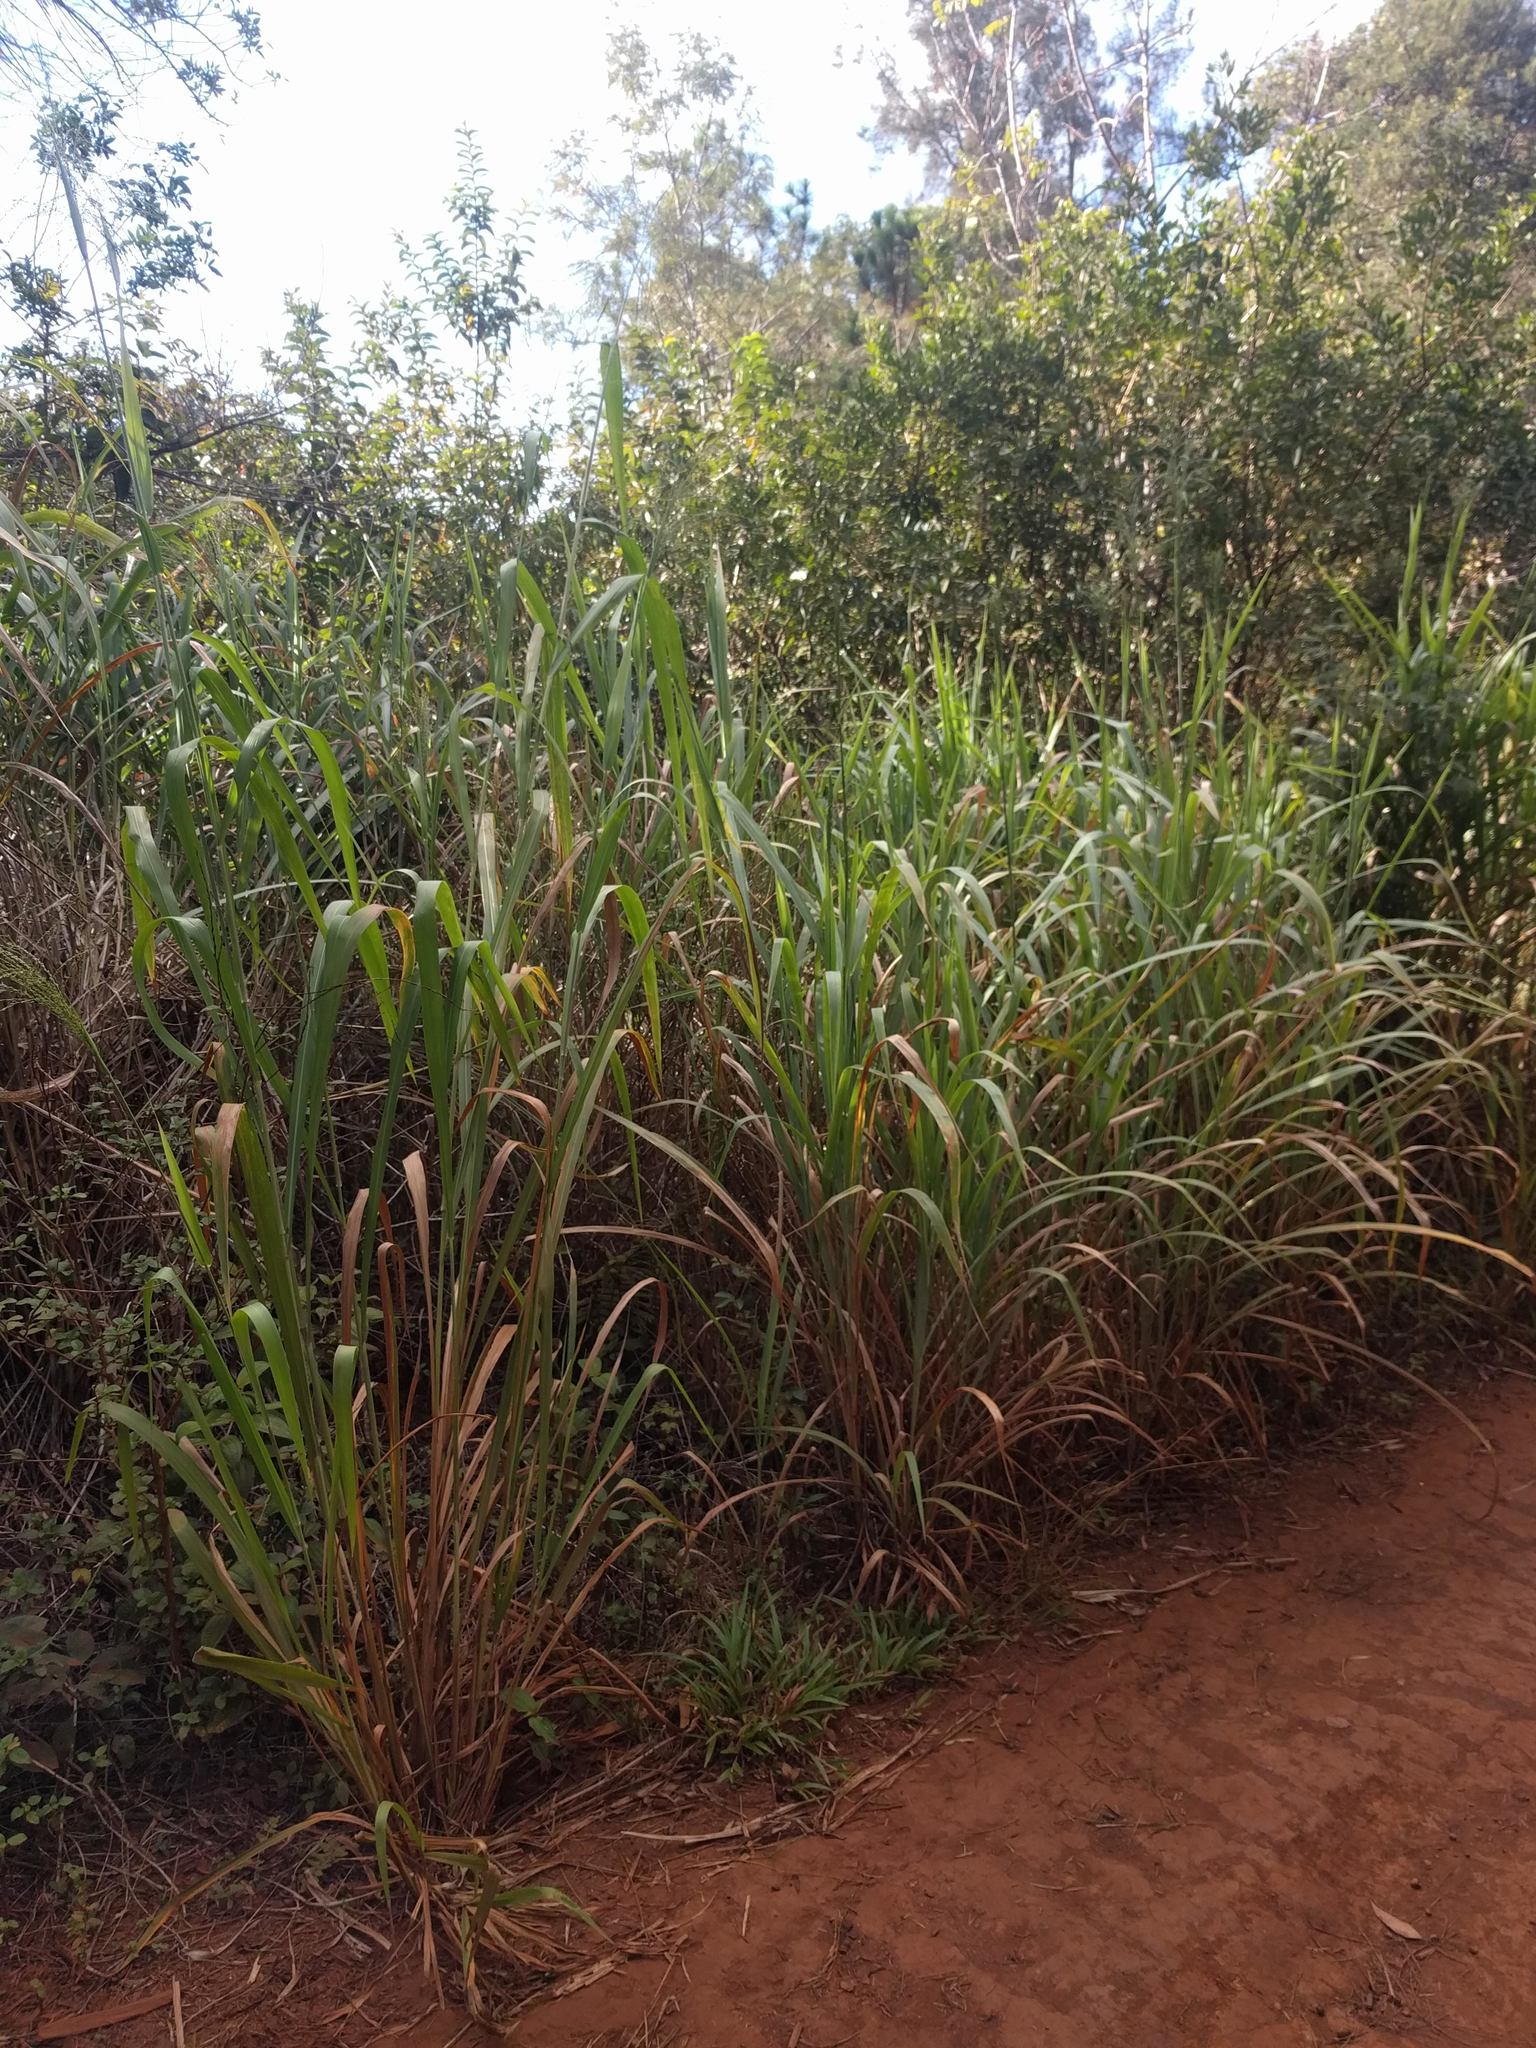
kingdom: Plantae
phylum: Tracheophyta
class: Liliopsida
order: Poales
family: Poaceae
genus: Megathyrsus
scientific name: Megathyrsus maximus
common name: Guineagrass
